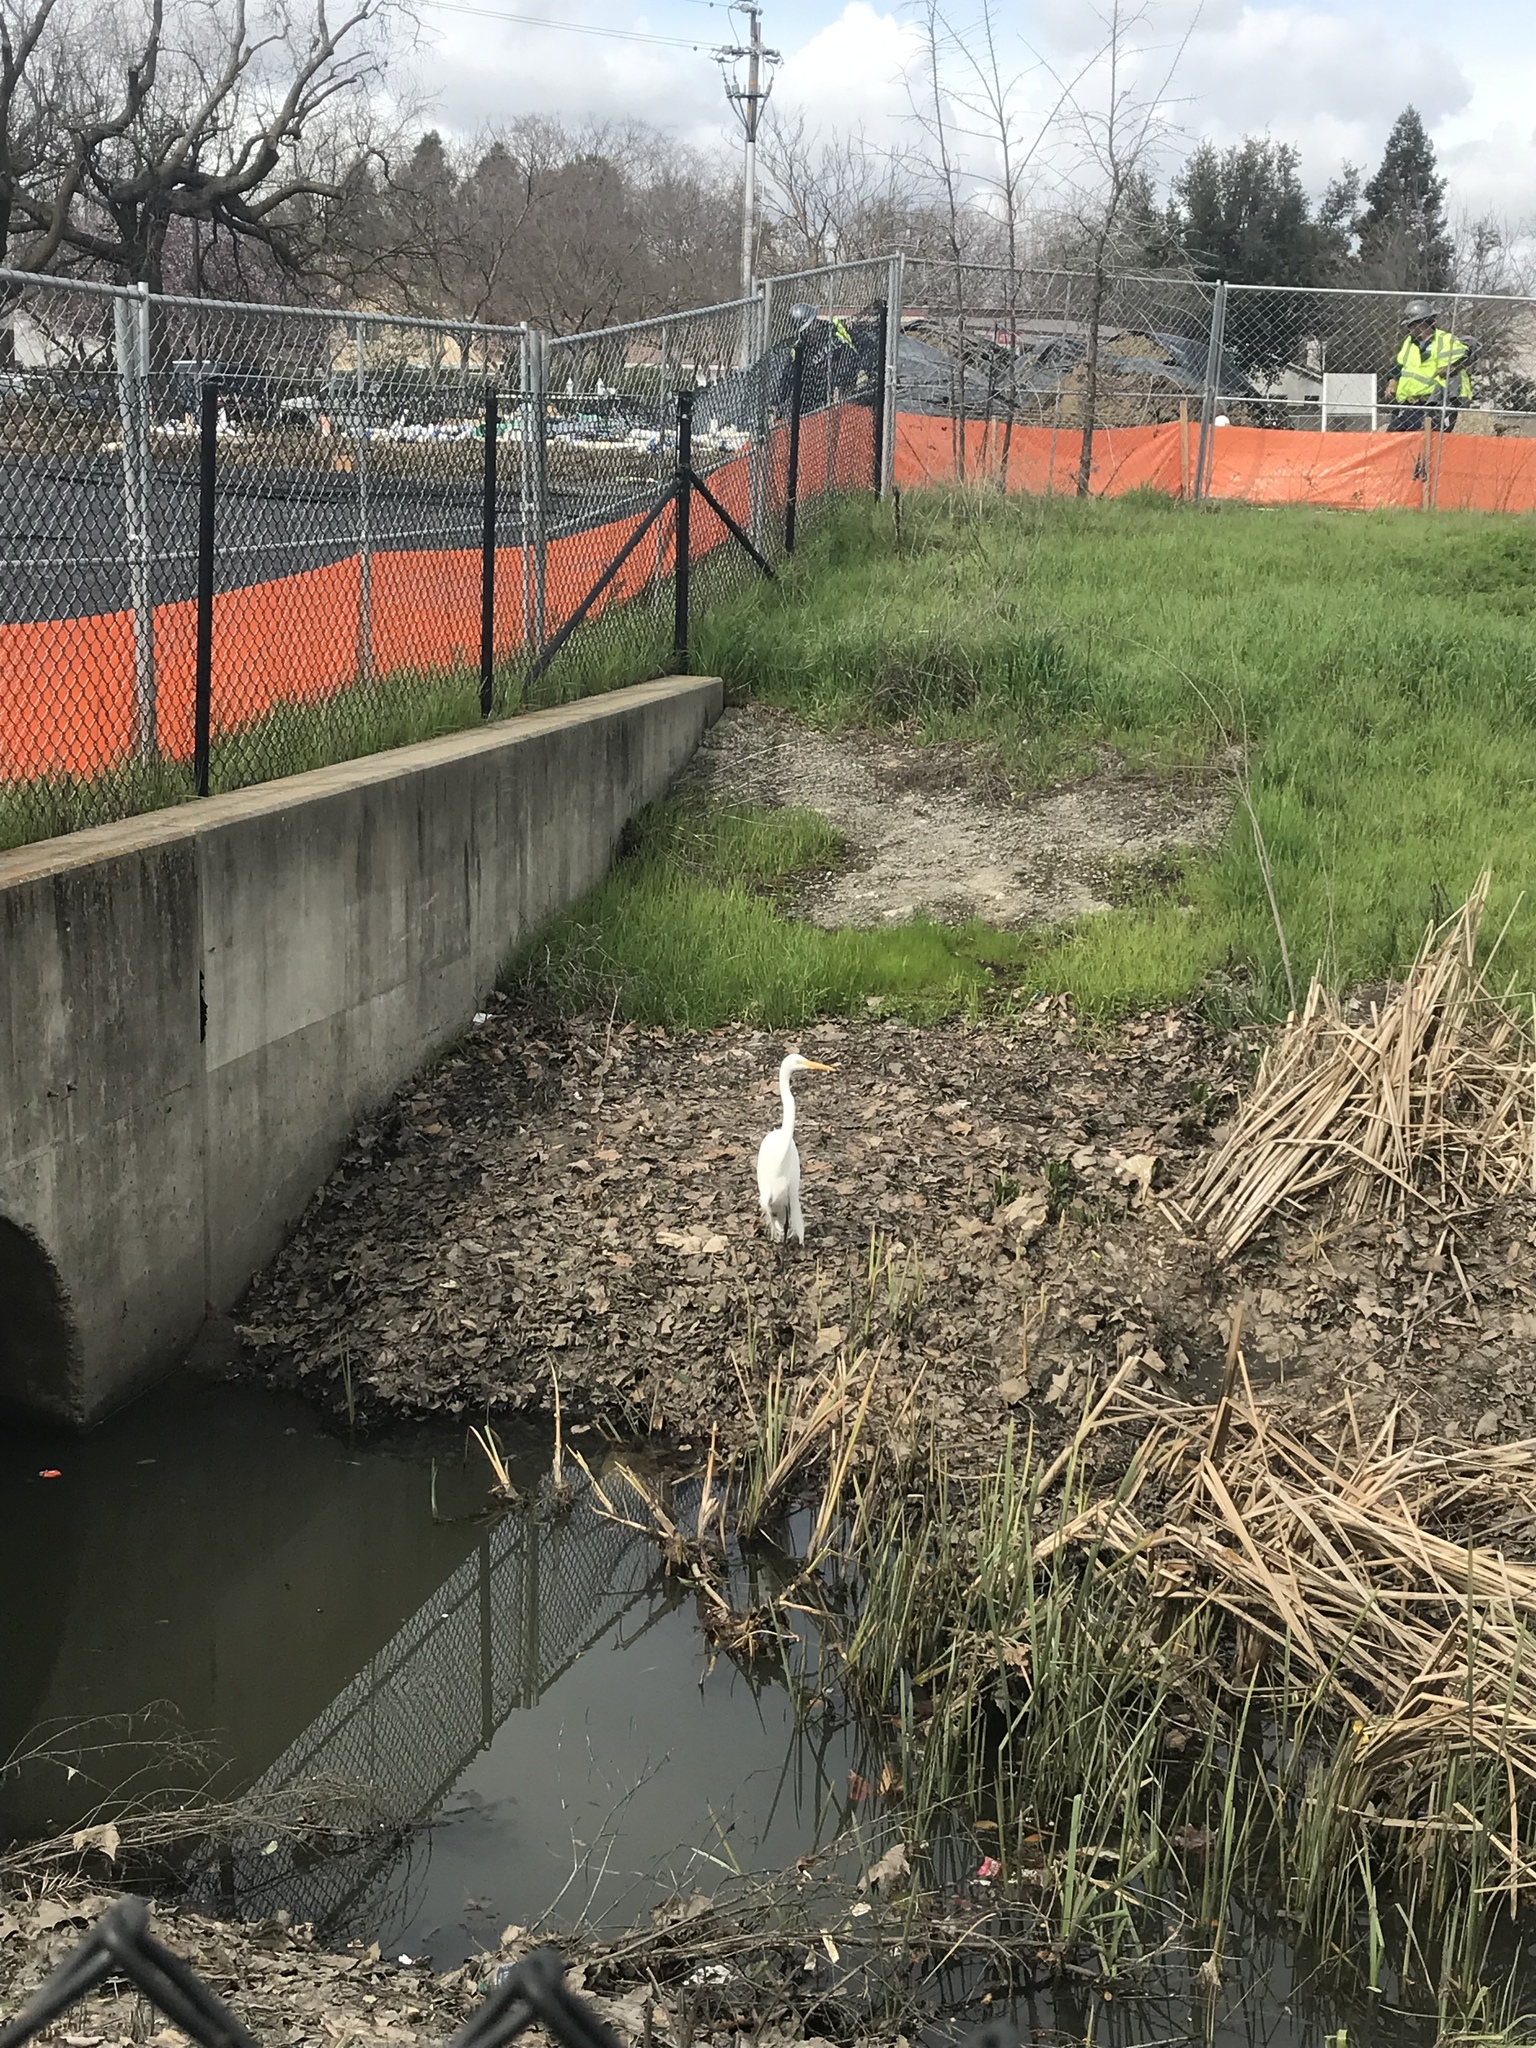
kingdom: Animalia
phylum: Chordata
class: Aves
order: Pelecaniformes
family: Ardeidae
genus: Ardea
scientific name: Ardea alba
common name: Great egret
